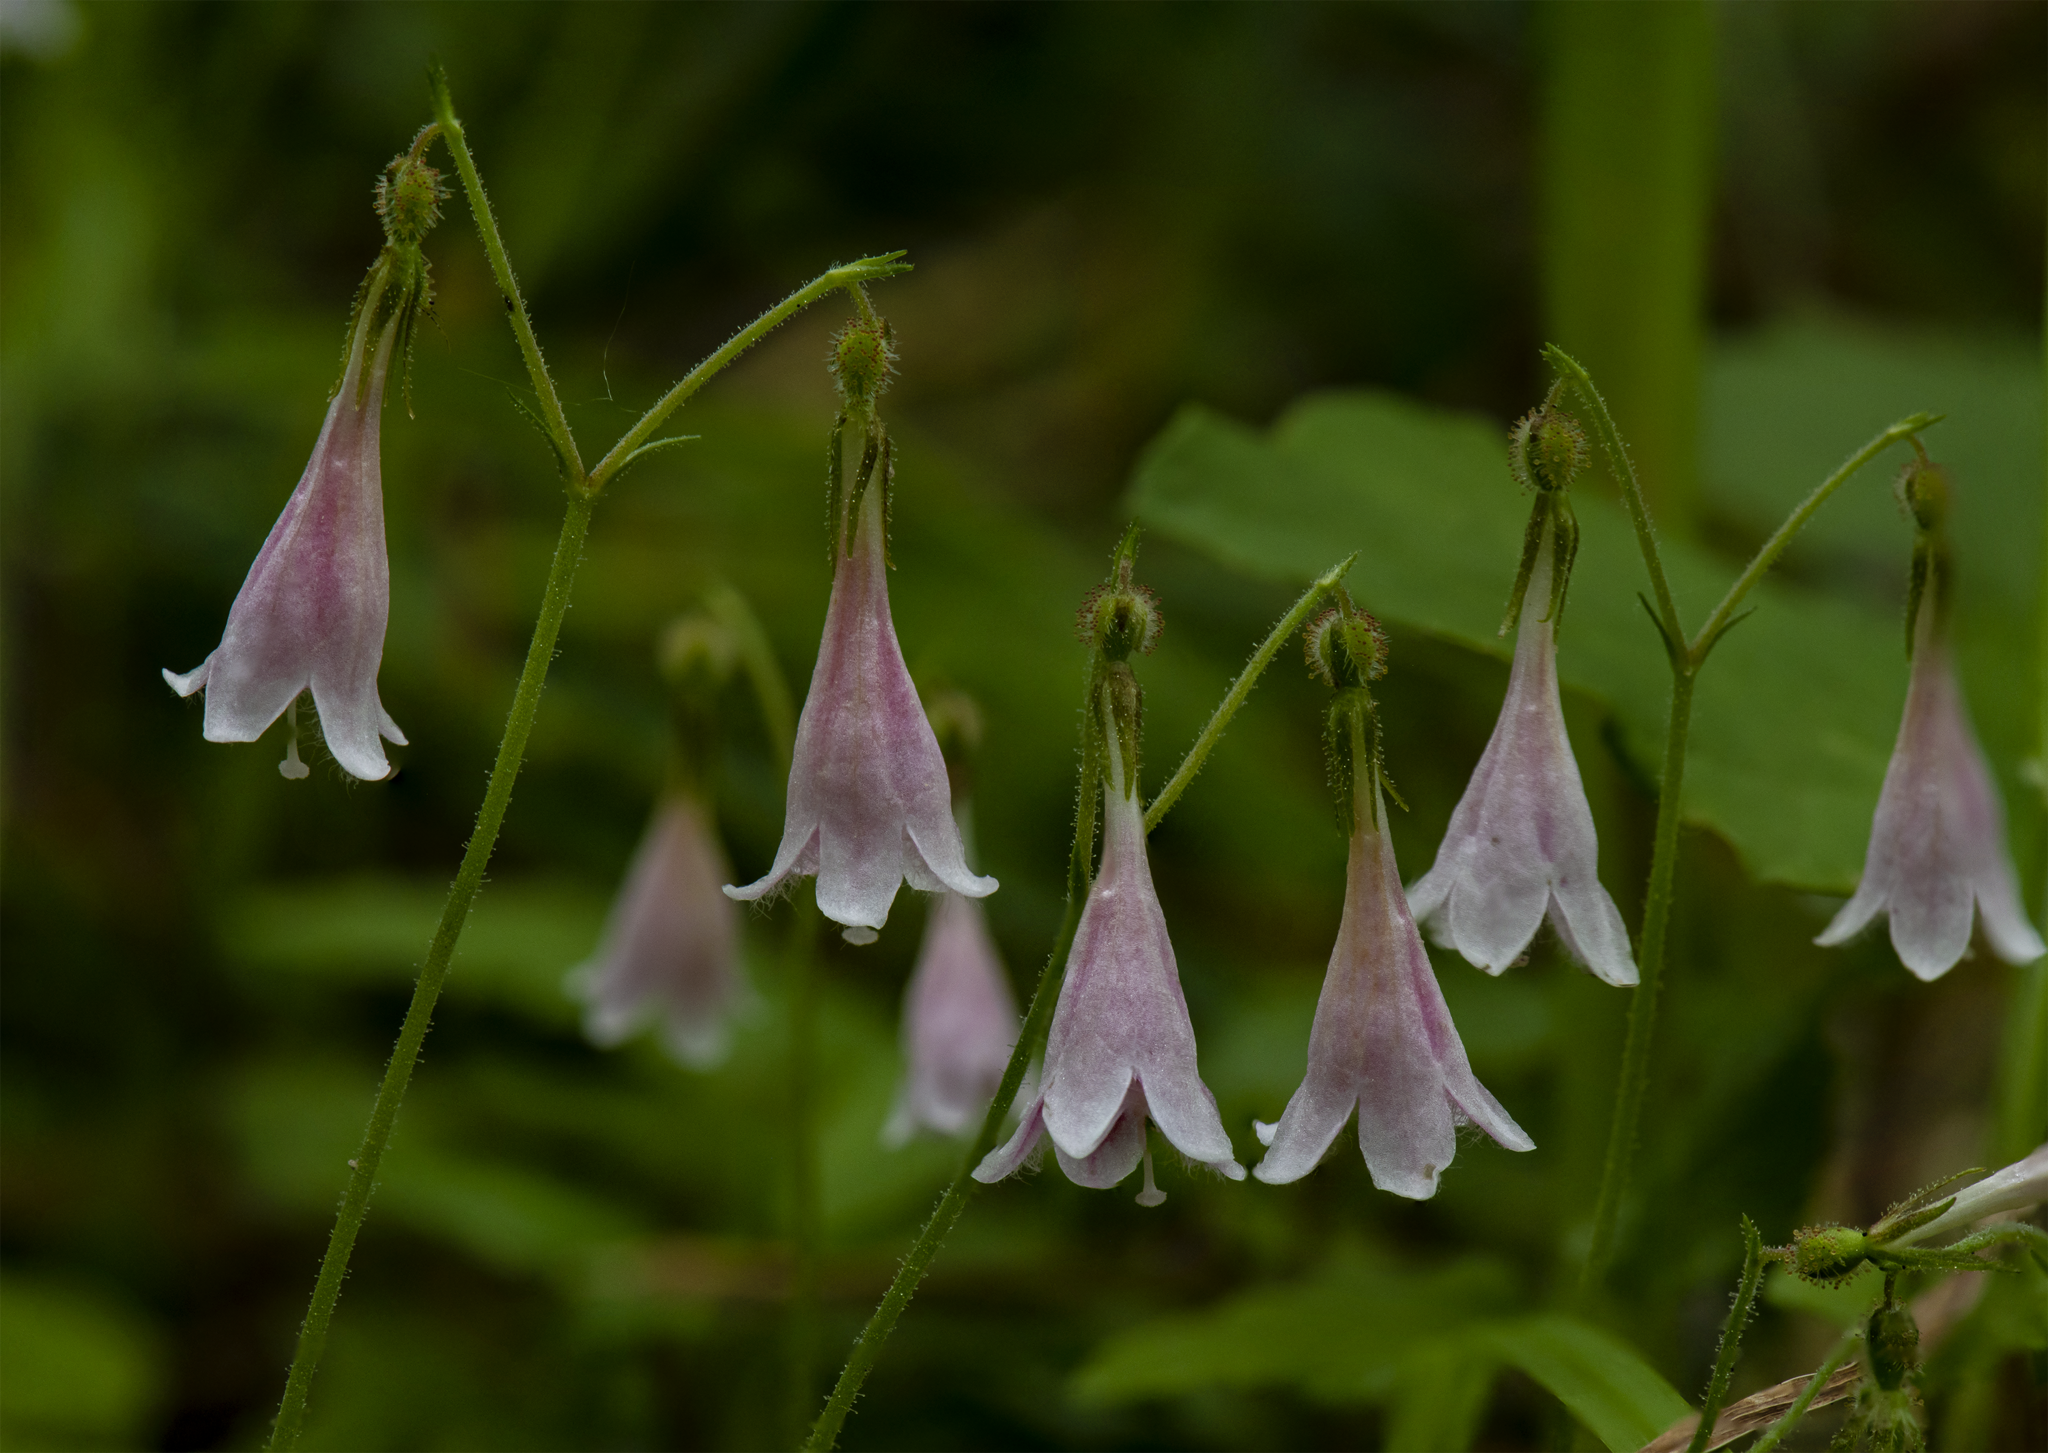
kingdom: Plantae
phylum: Tracheophyta
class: Magnoliopsida
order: Dipsacales
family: Caprifoliaceae
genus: Linnaea
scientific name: Linnaea borealis
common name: Twinflower
